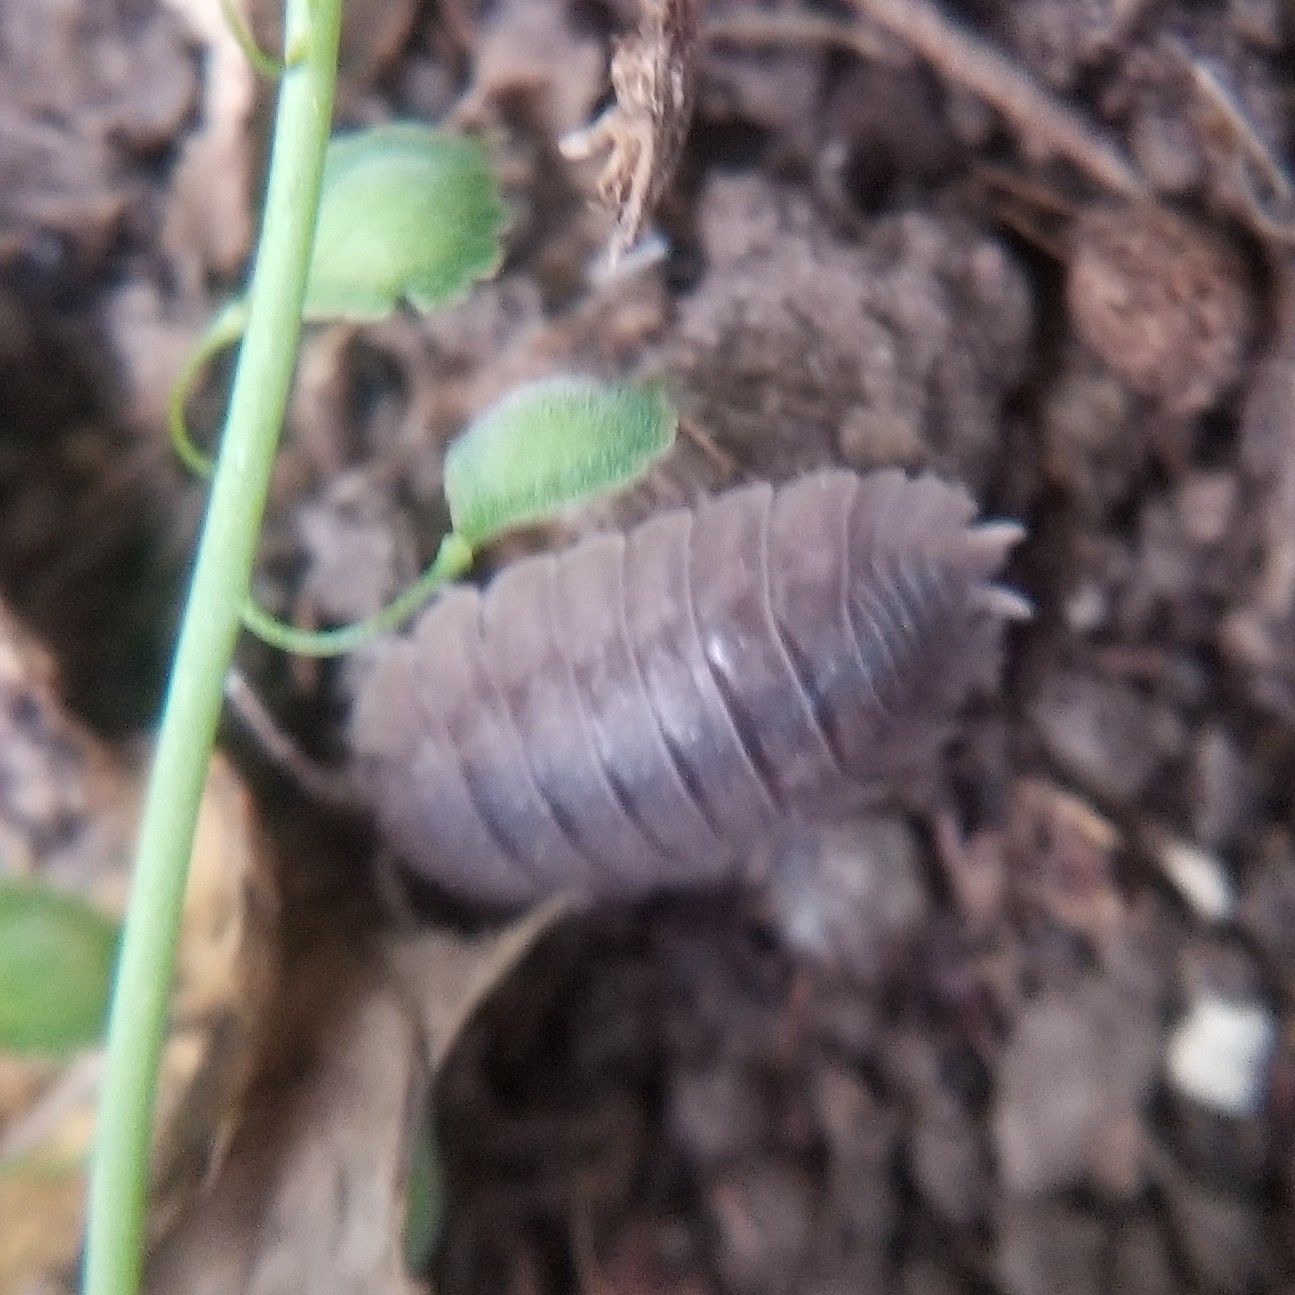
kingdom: Animalia
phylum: Arthropoda
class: Malacostraca
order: Isopoda
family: Porcellionidae
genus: Porcellio
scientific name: Porcellio dilatatus
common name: Isopod
